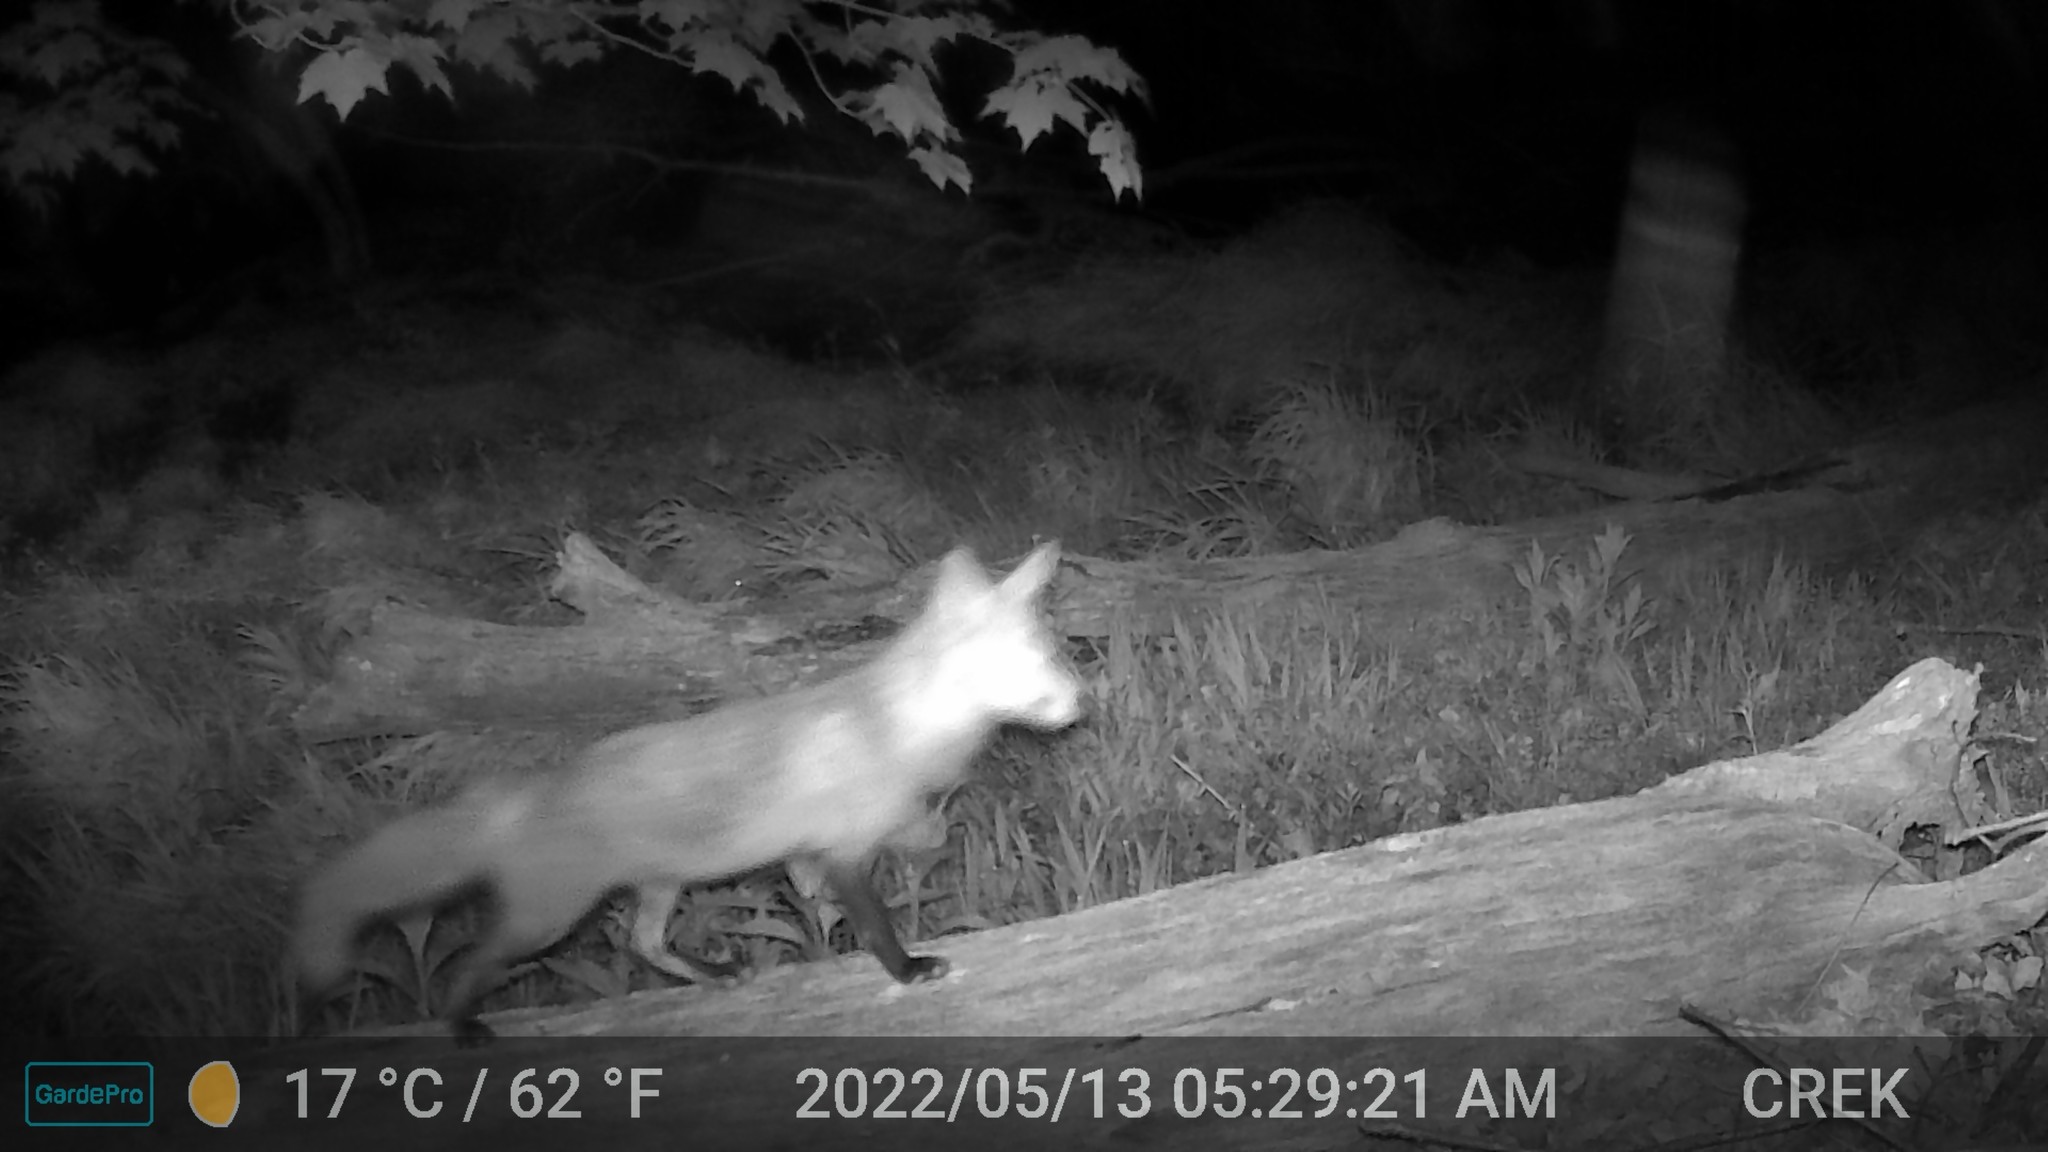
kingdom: Animalia
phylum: Chordata
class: Mammalia
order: Carnivora
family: Canidae
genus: Vulpes
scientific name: Vulpes vulpes
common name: Red fox
